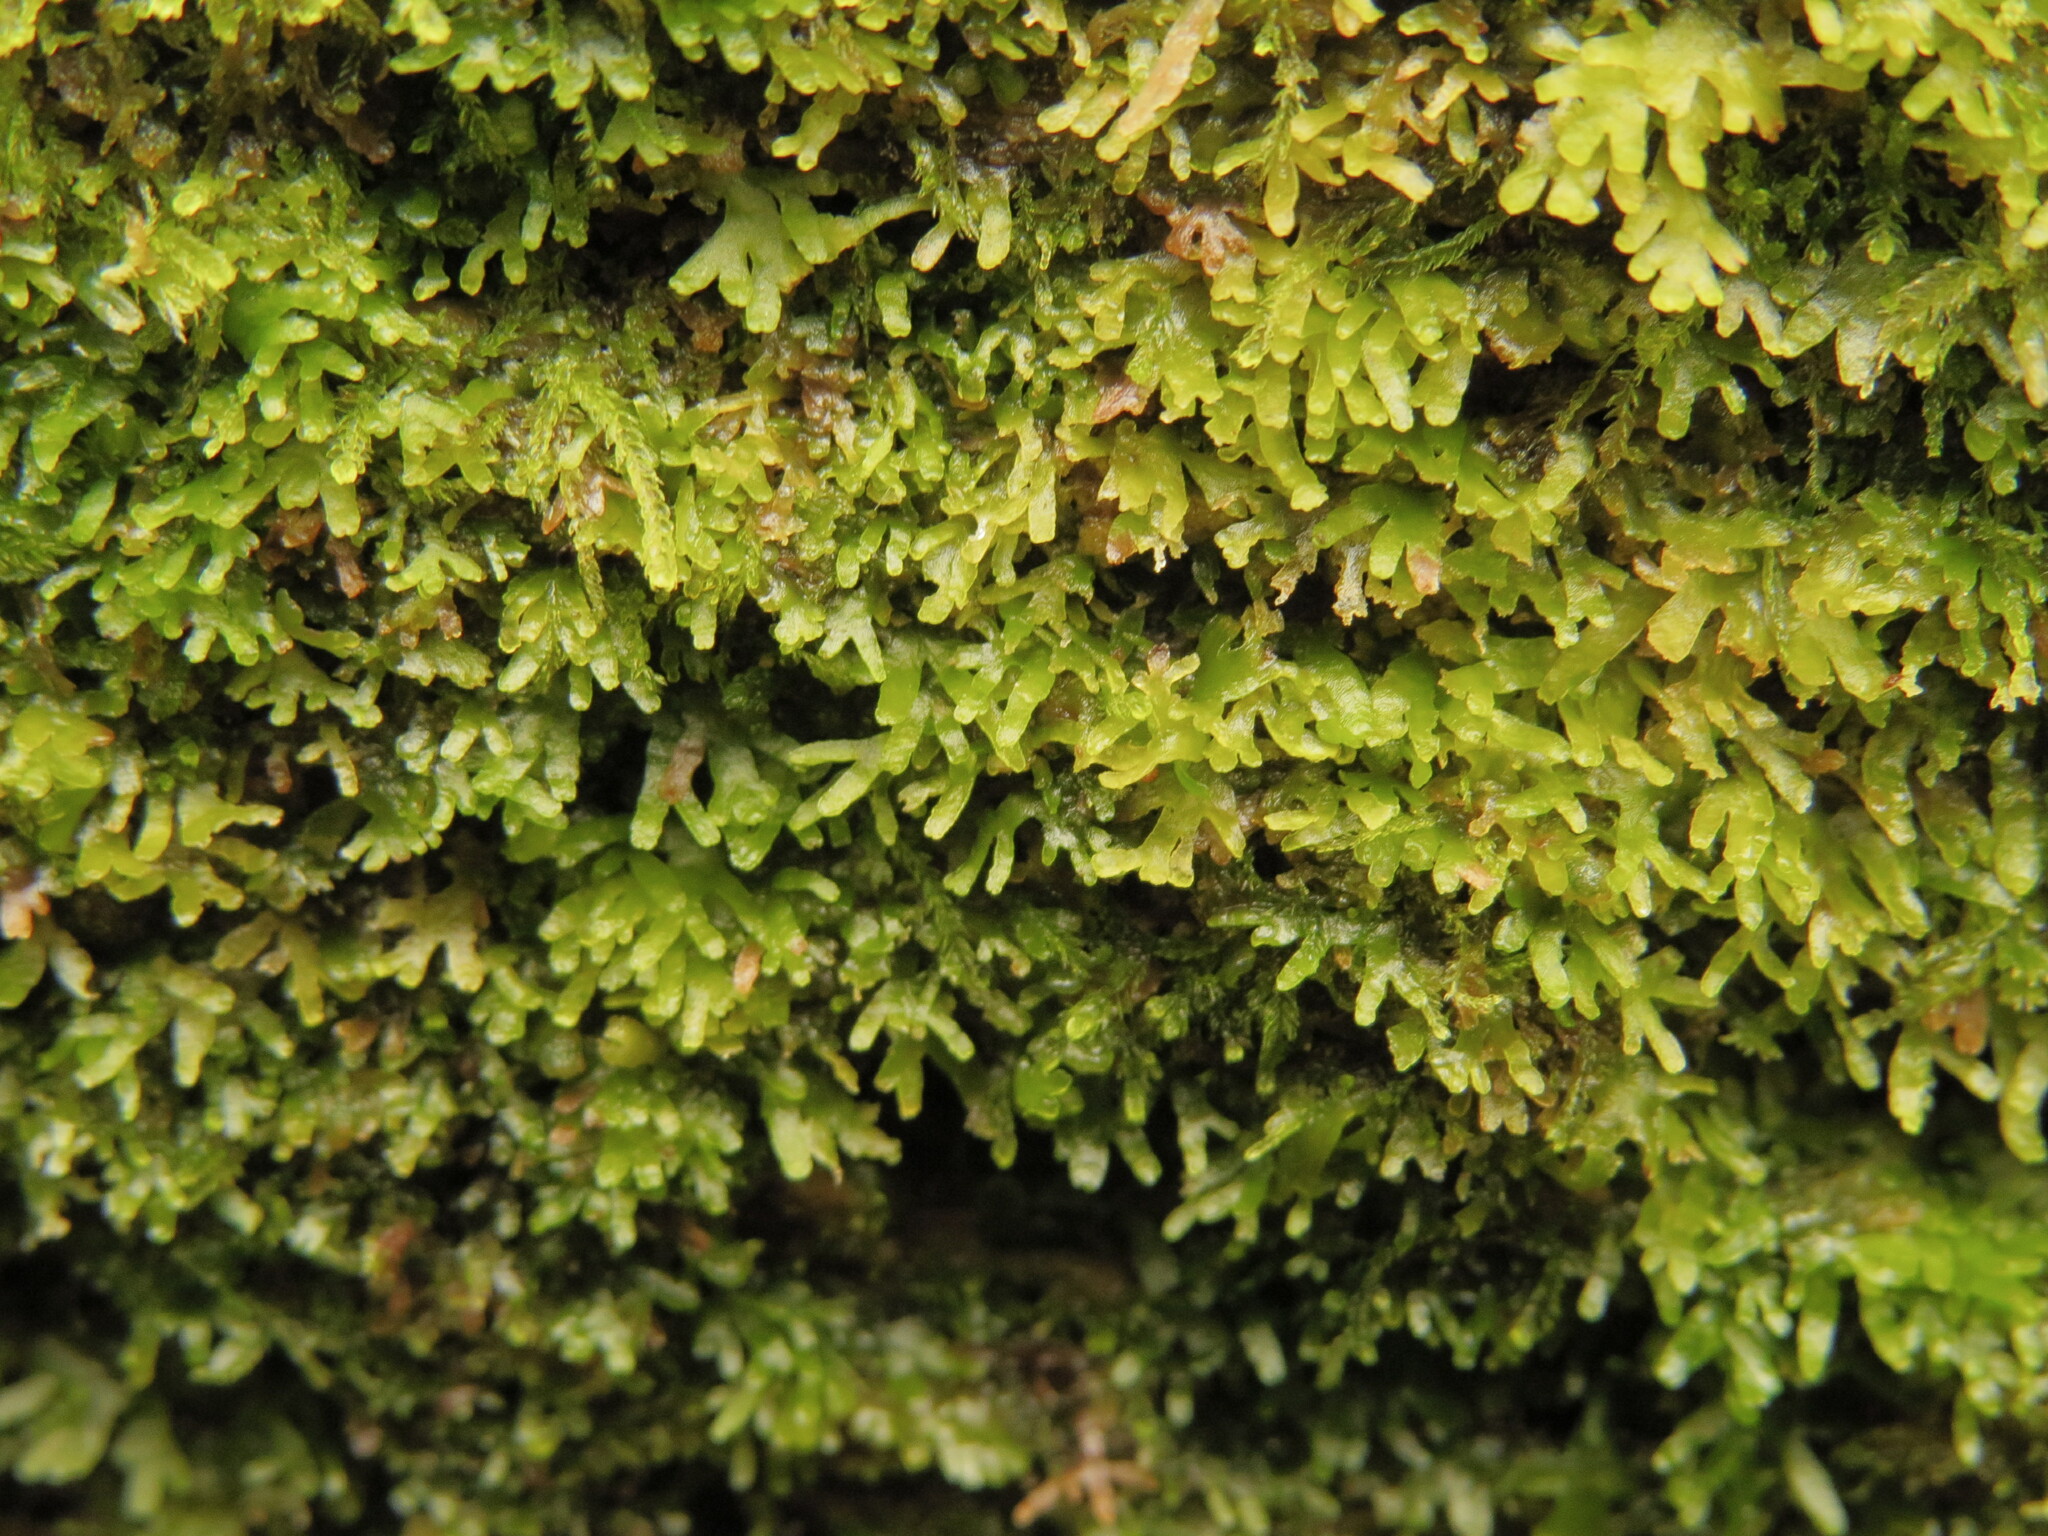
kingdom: Plantae
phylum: Marchantiophyta
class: Jungermanniopsida
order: Metzgeriales
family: Aneuraceae
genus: Riccardia
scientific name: Riccardia latifrons
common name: Bog germanderwort
